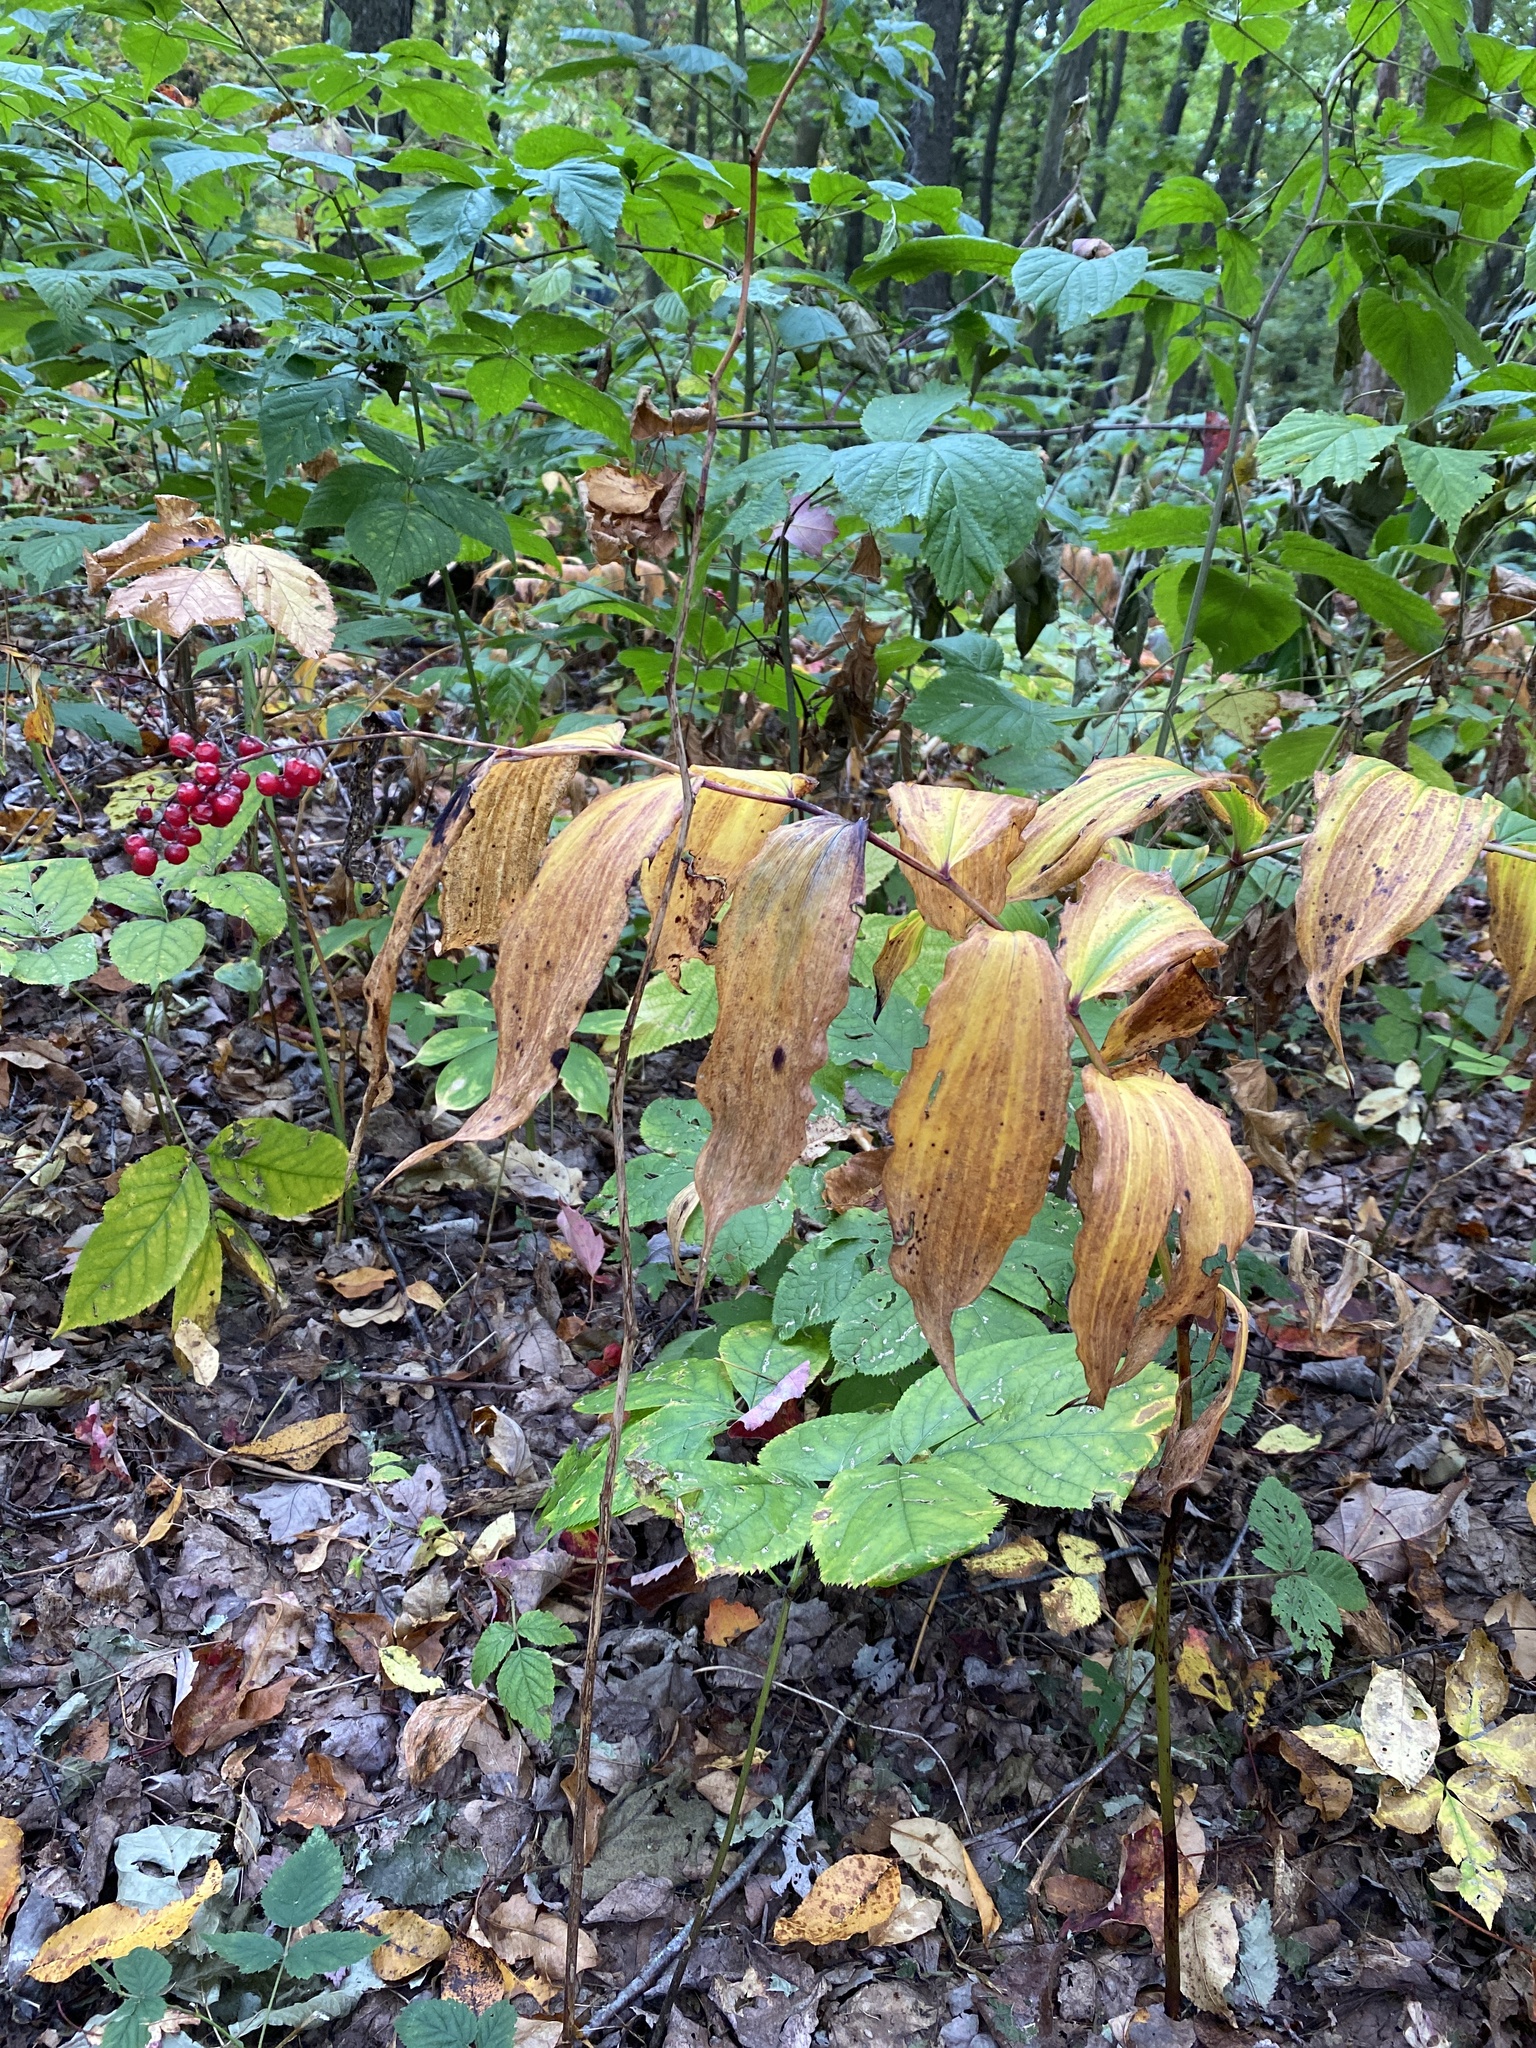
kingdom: Plantae
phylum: Tracheophyta
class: Liliopsida
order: Asparagales
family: Asparagaceae
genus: Maianthemum
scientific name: Maianthemum racemosum
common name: False spikenard
